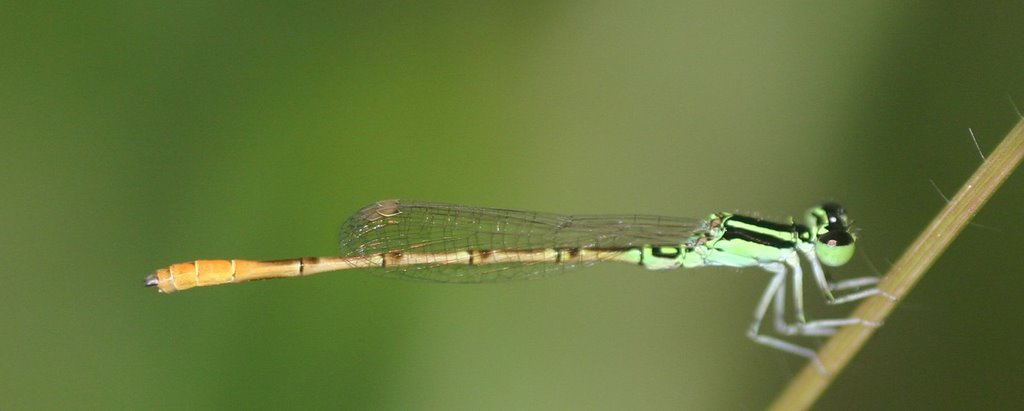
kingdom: Animalia
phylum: Arthropoda
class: Insecta
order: Odonata
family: Coenagrionidae
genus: Agriocnemis
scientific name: Agriocnemis keralensis
